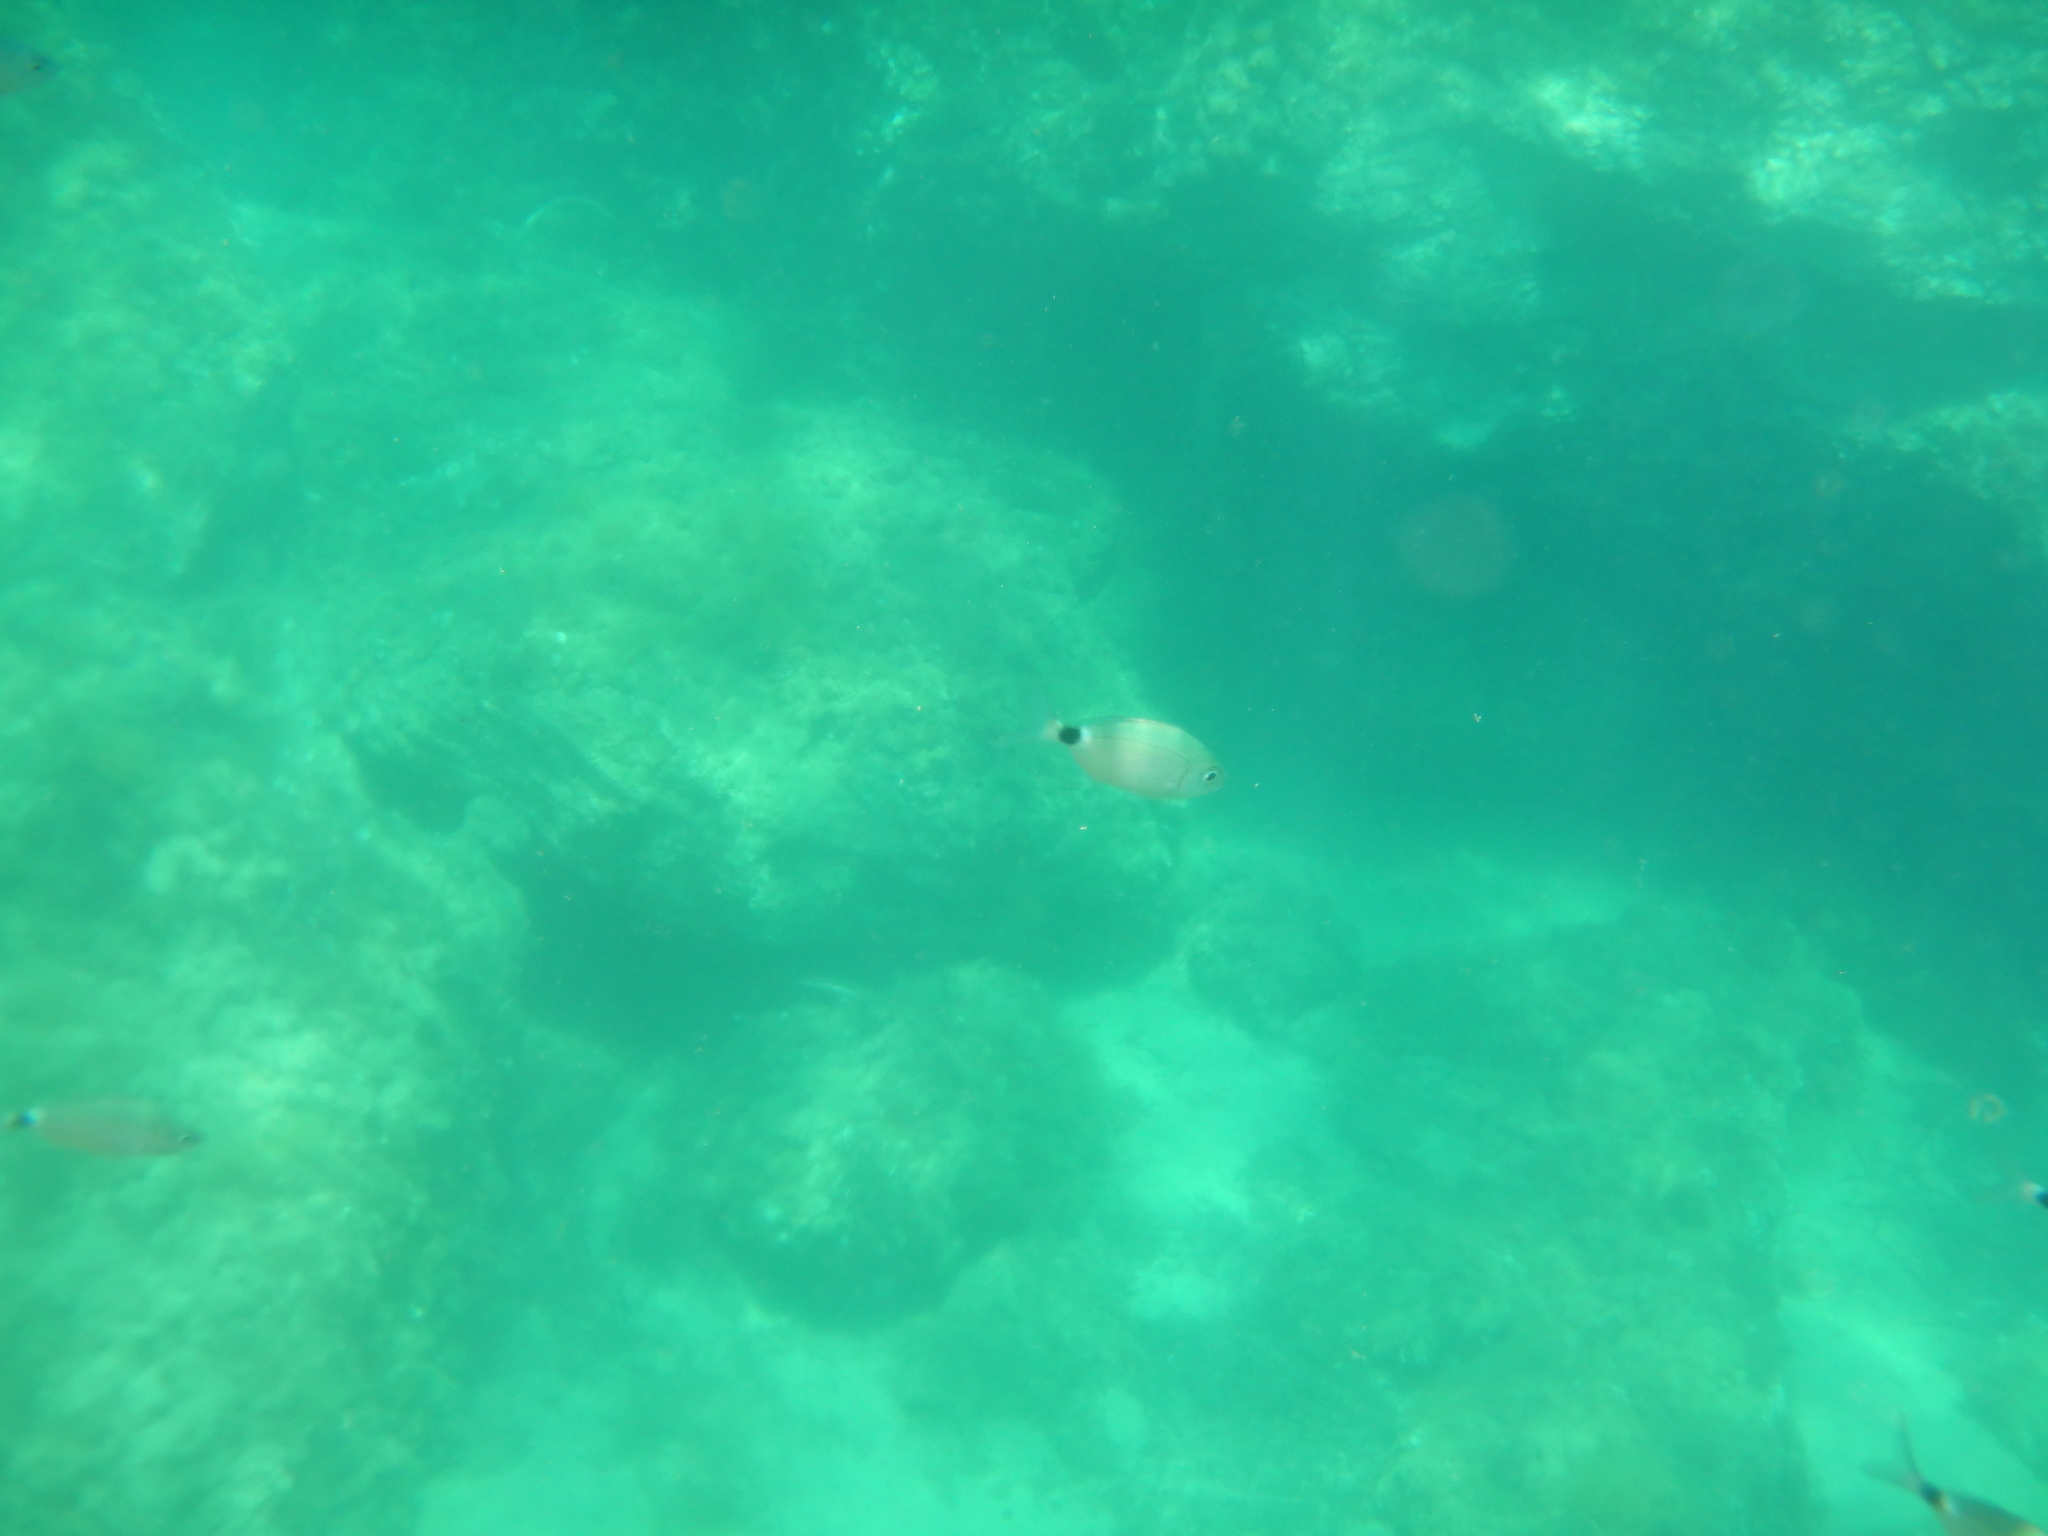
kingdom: Animalia
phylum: Chordata
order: Perciformes
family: Sparidae
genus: Oblada
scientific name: Oblada melanura
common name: Saddled seabream
